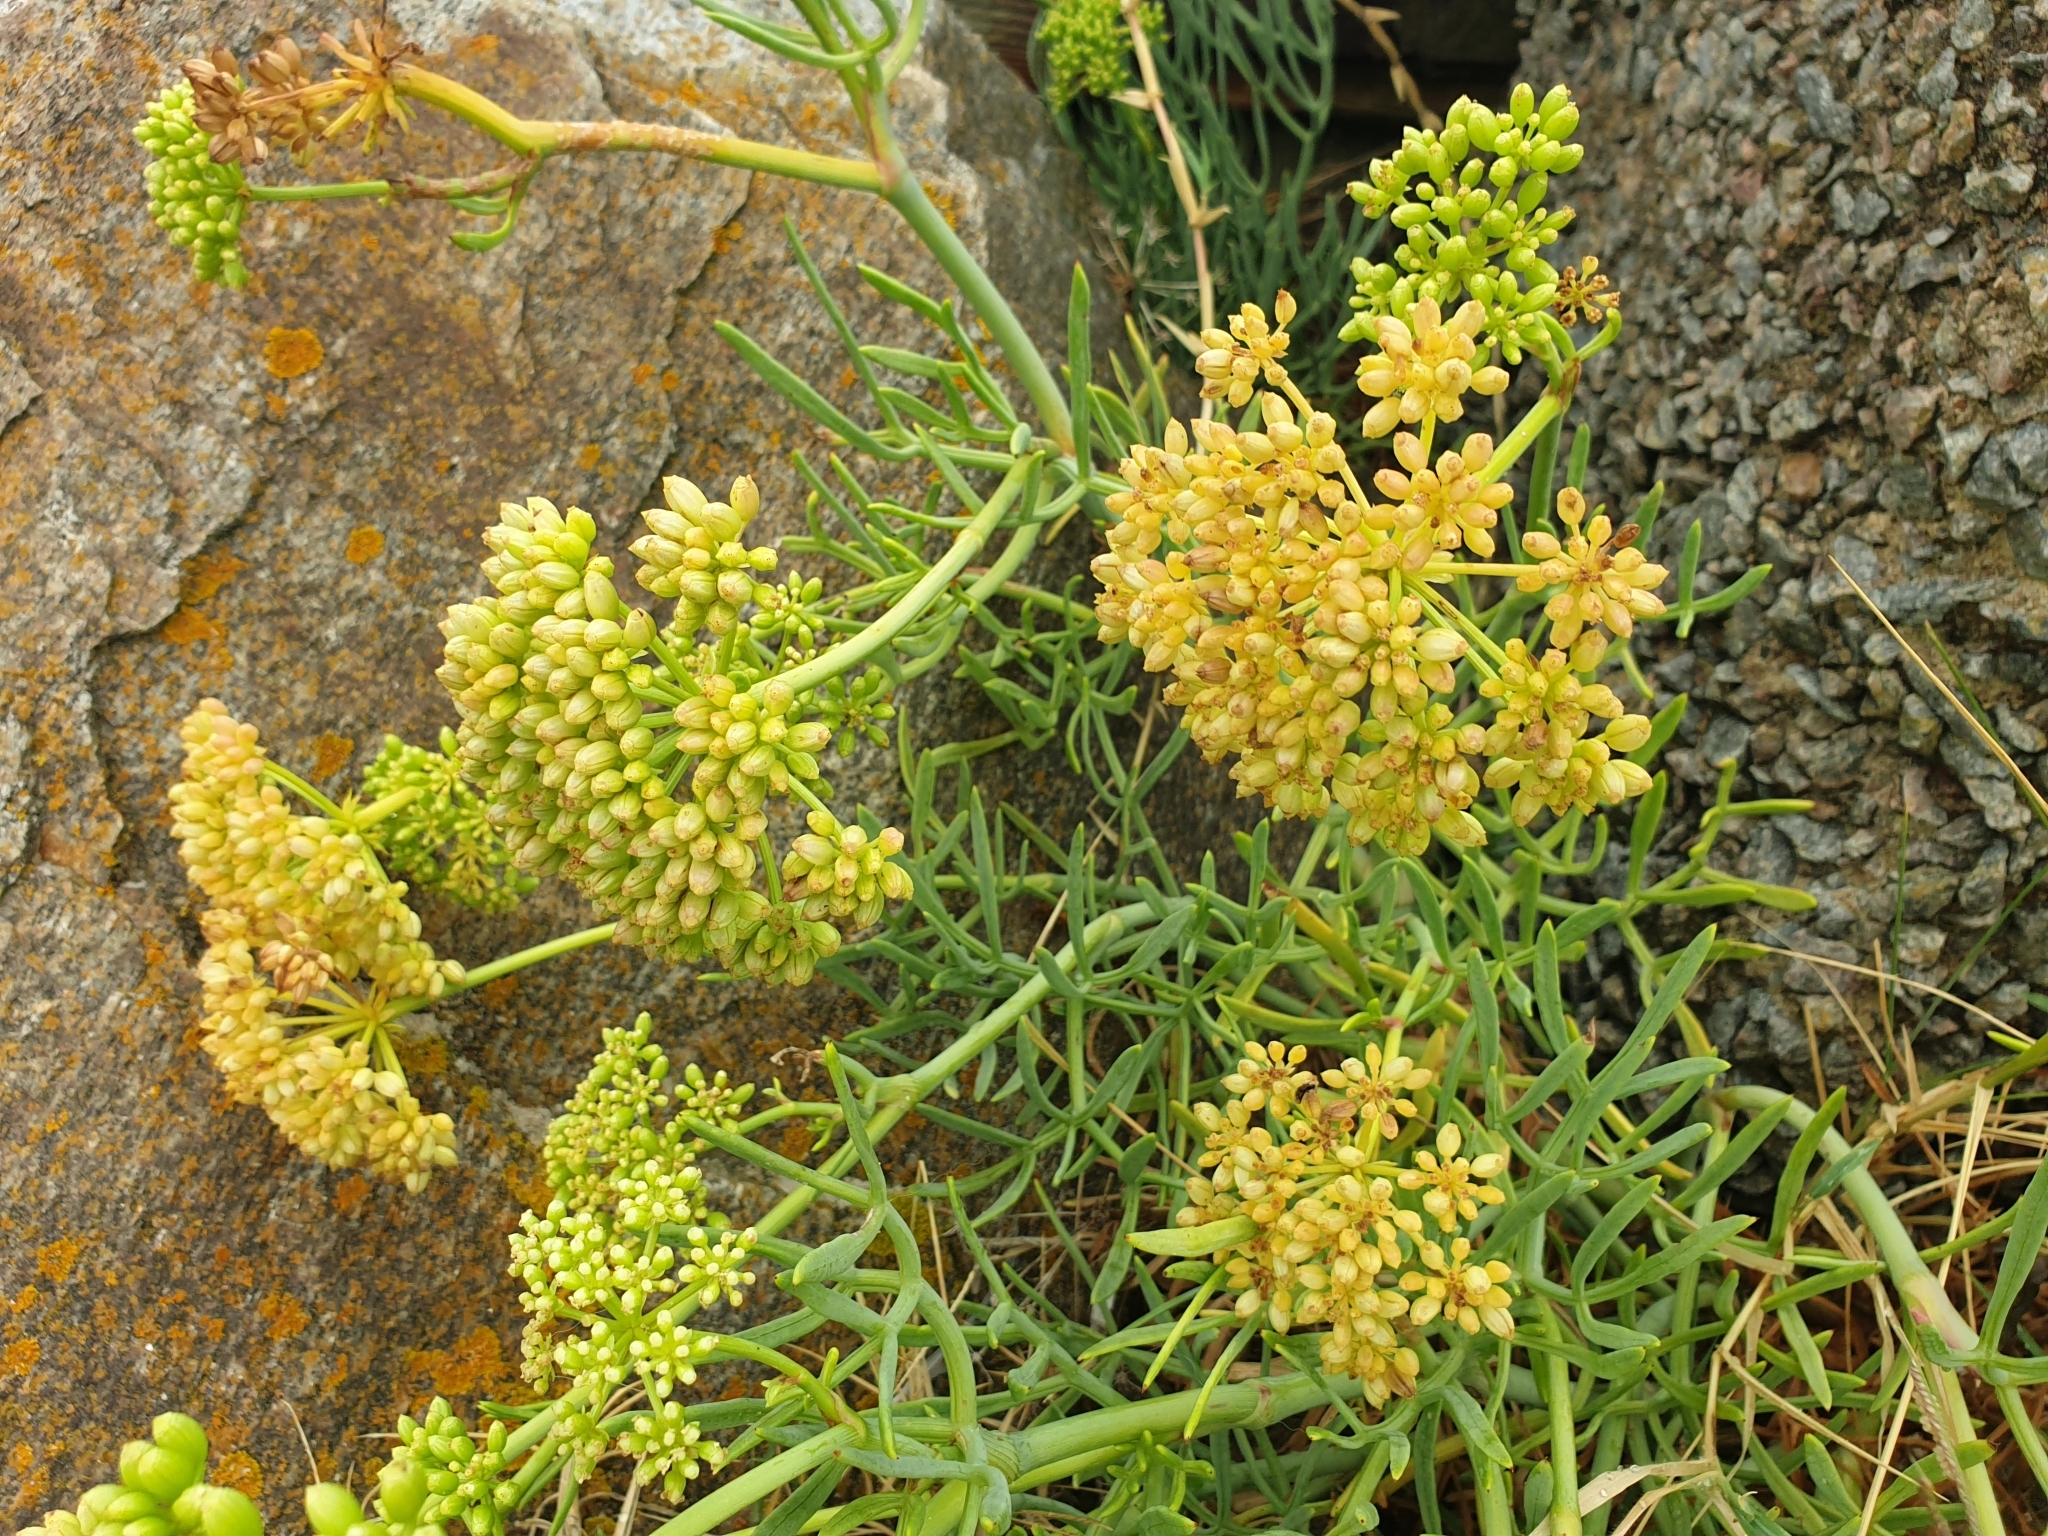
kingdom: Plantae
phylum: Tracheophyta
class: Magnoliopsida
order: Apiales
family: Apiaceae
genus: Crithmum
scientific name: Crithmum maritimum
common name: Rock samphire
